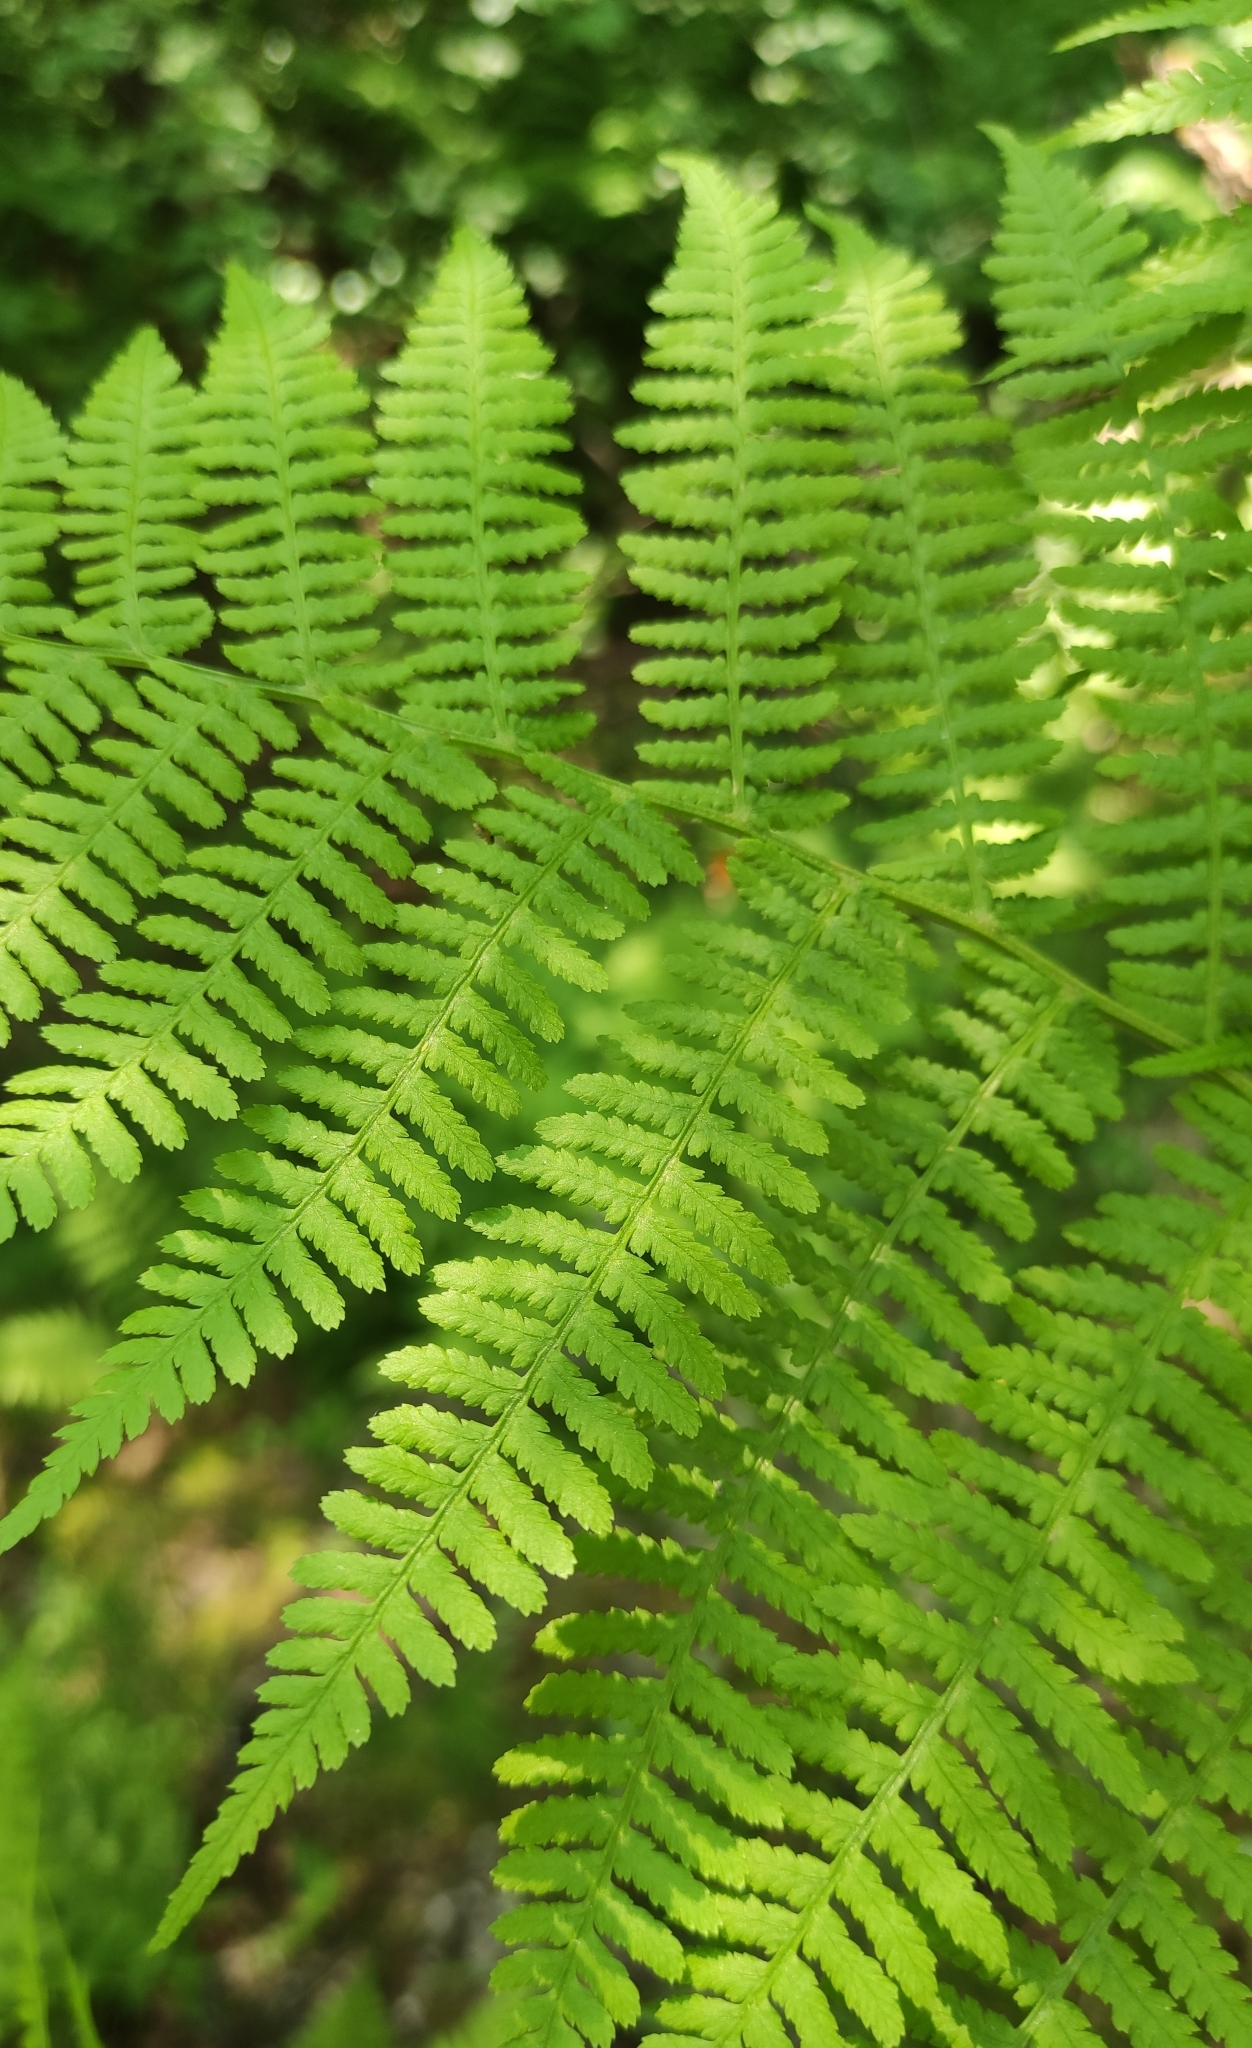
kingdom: Plantae
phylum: Tracheophyta
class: Polypodiopsida
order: Polypodiales
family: Athyriaceae
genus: Athyrium
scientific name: Athyrium filix-femina
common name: Lady fern
